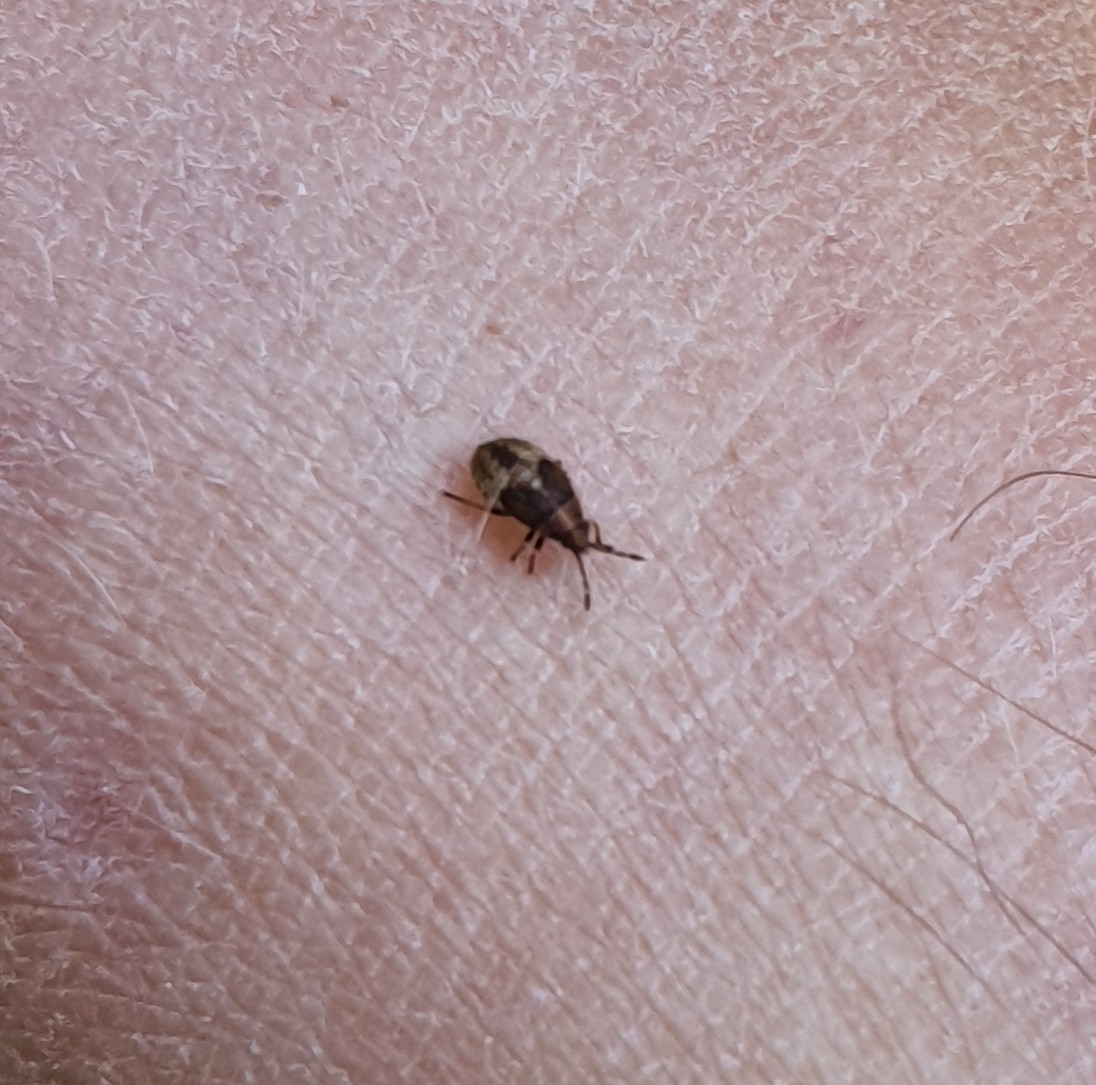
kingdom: Animalia
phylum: Arthropoda
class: Insecta
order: Hemiptera
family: Lygaeidae
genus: Kleidocerys
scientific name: Kleidocerys resedae
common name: Birch catkin bug
